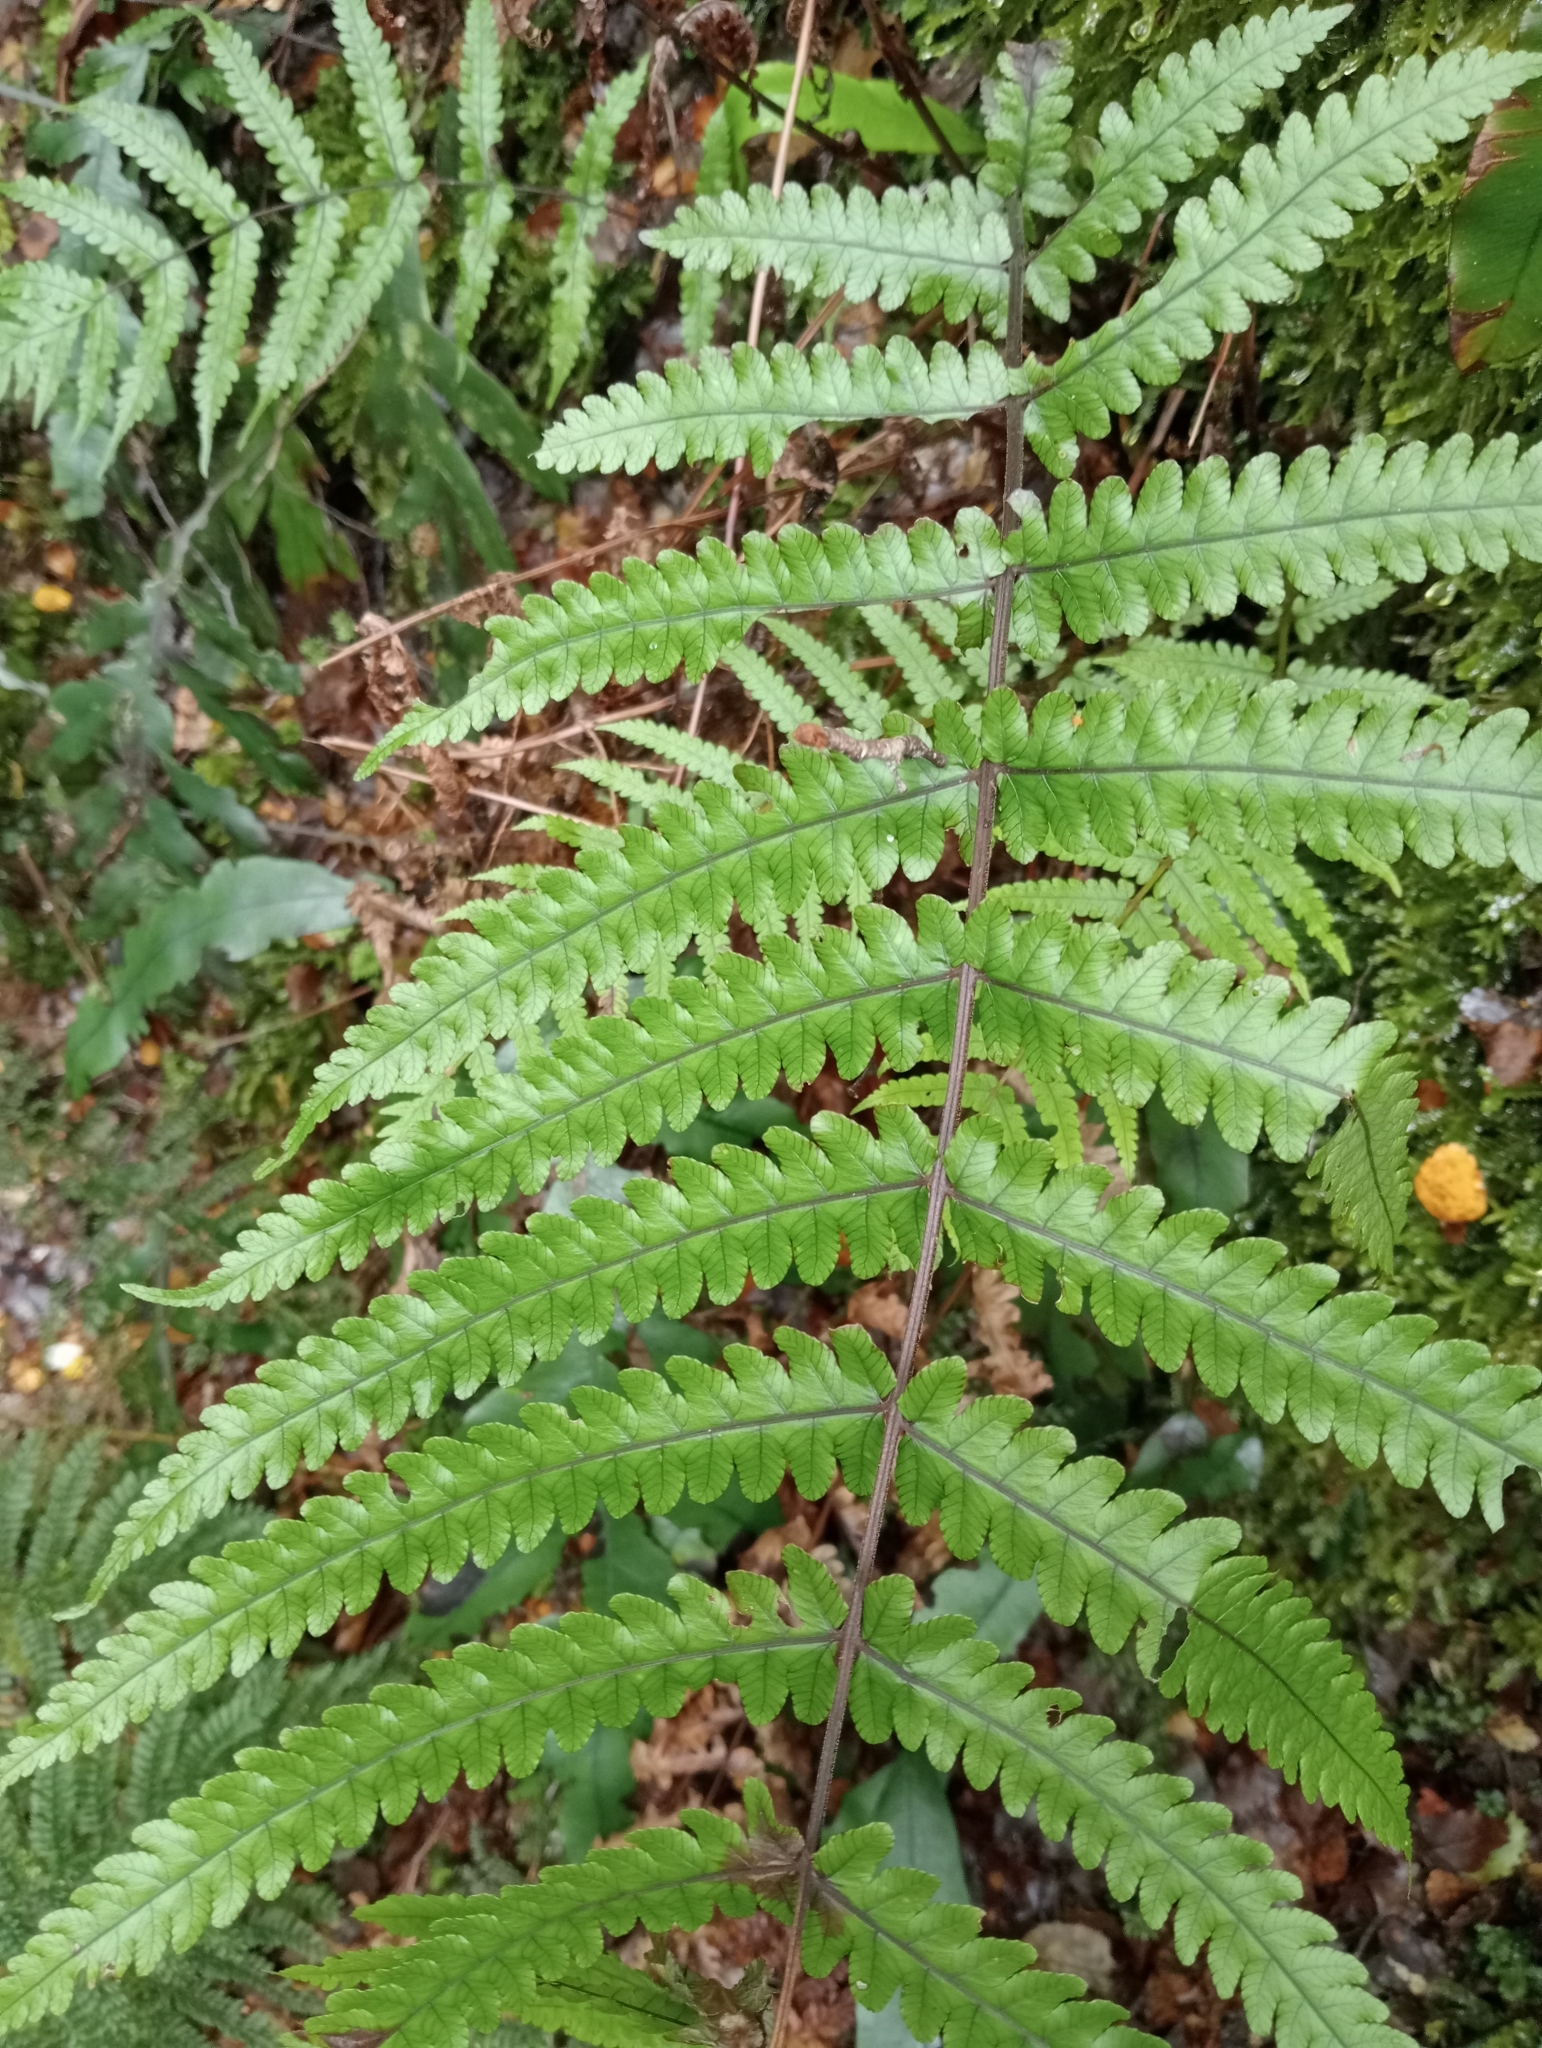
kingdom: Plantae
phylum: Tracheophyta
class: Polypodiopsida
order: Polypodiales
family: Thelypteridaceae
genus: Pakau
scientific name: Pakau pennigera
